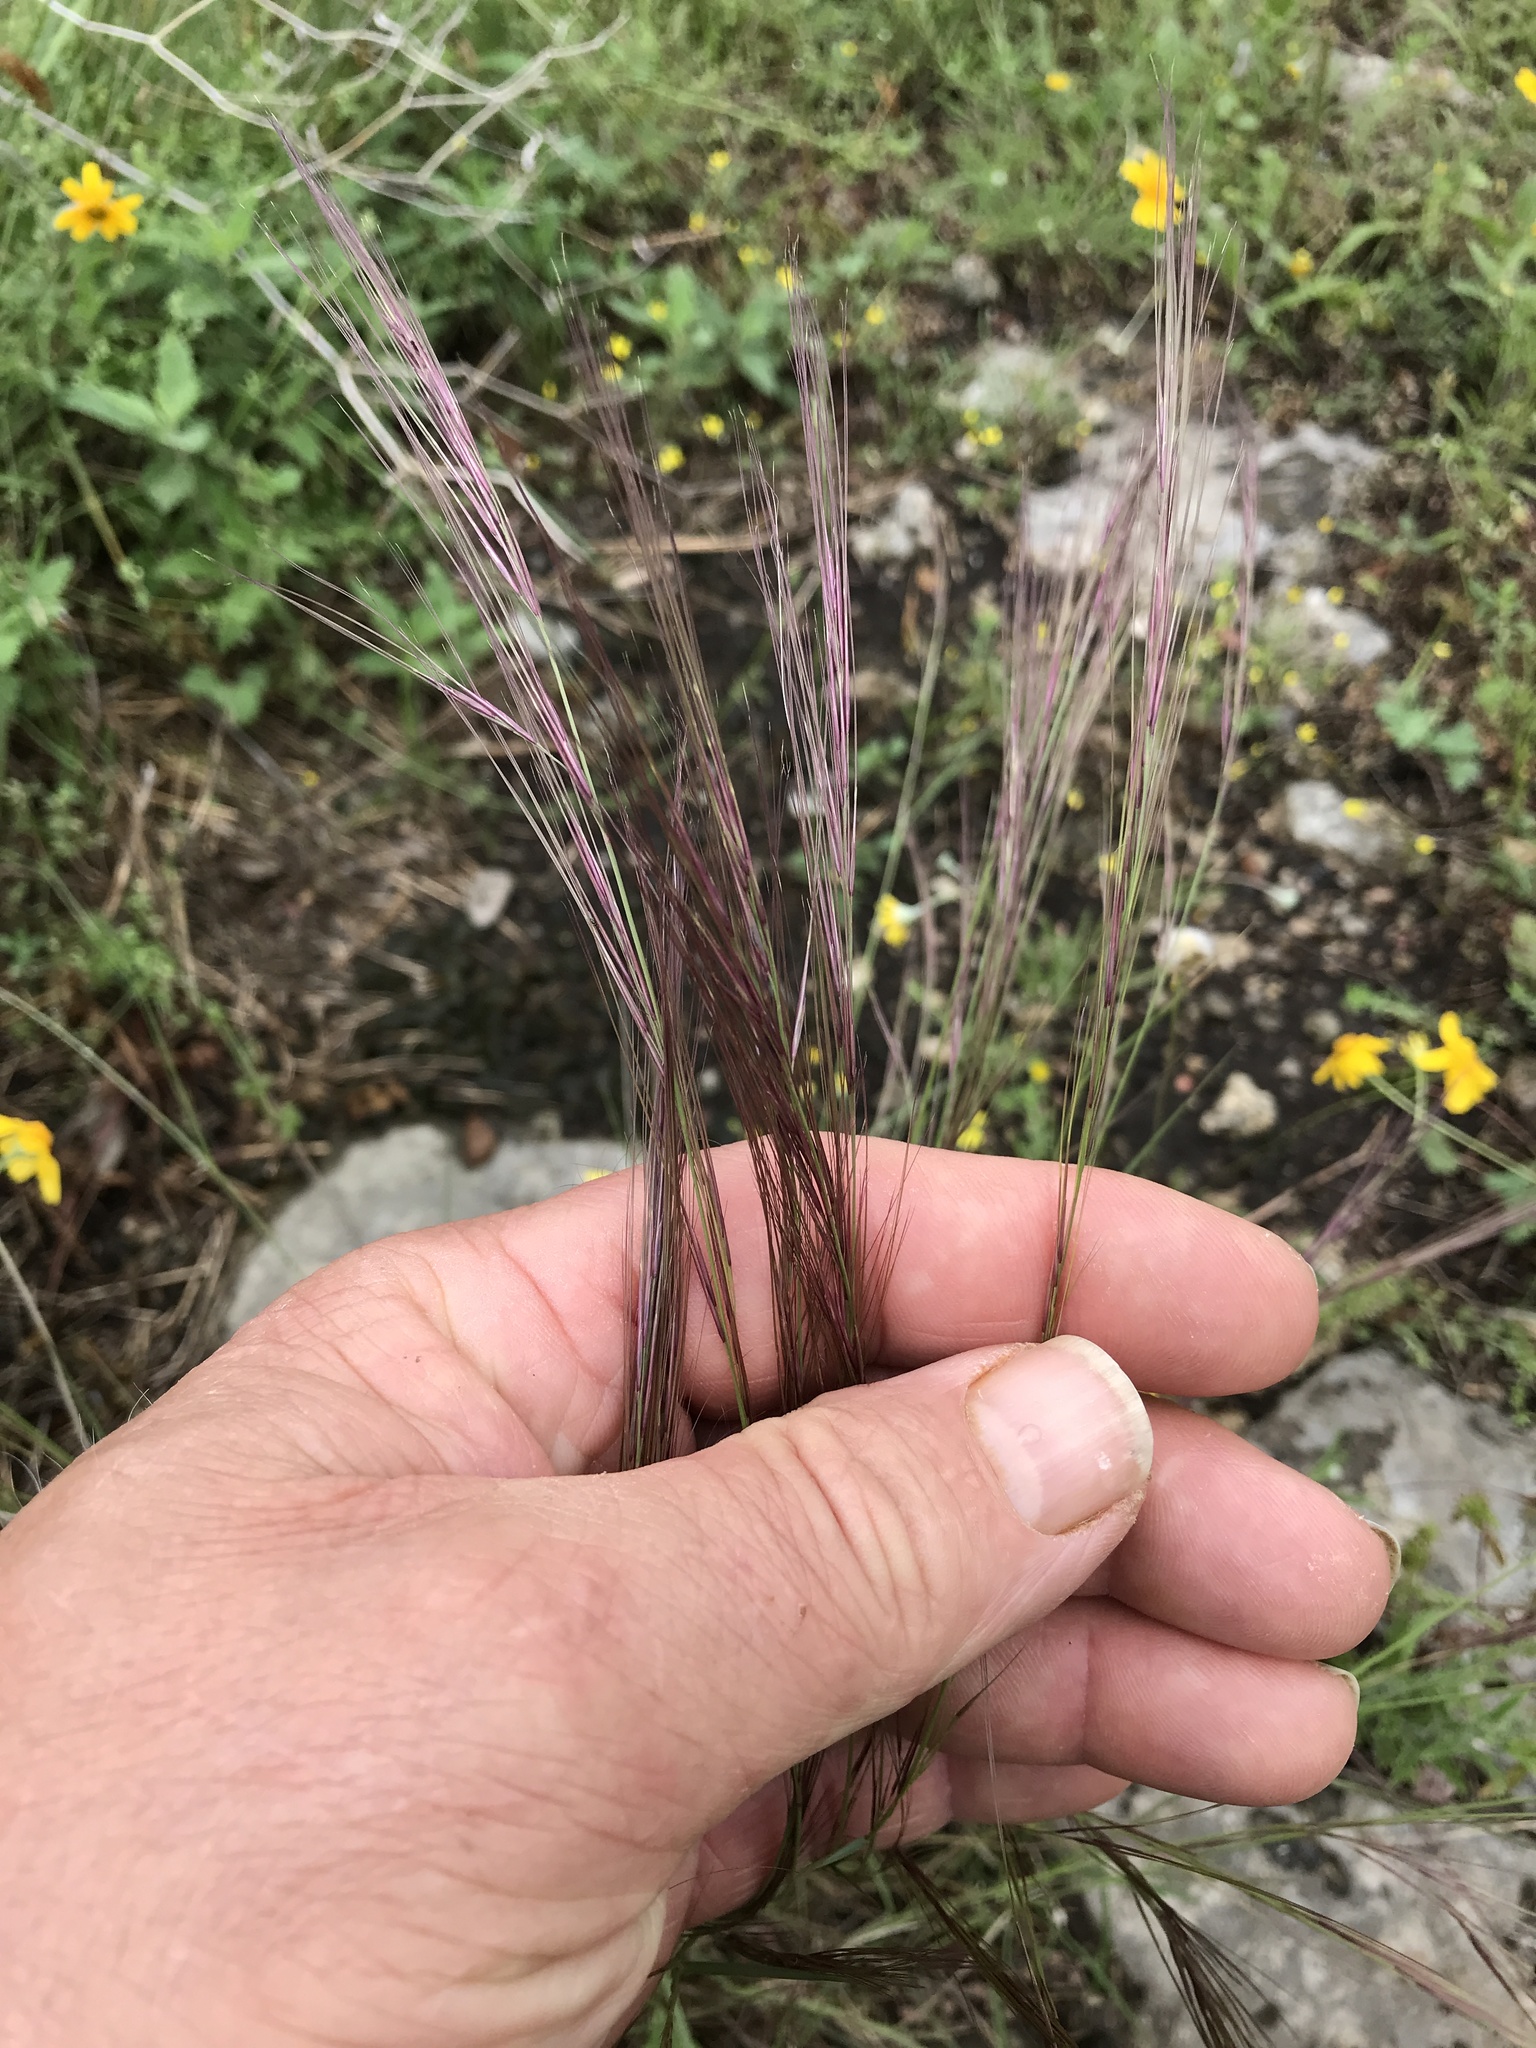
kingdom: Plantae
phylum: Tracheophyta
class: Liliopsida
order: Poales
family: Poaceae
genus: Aristida
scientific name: Aristida purpurea
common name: Purple threeawn
